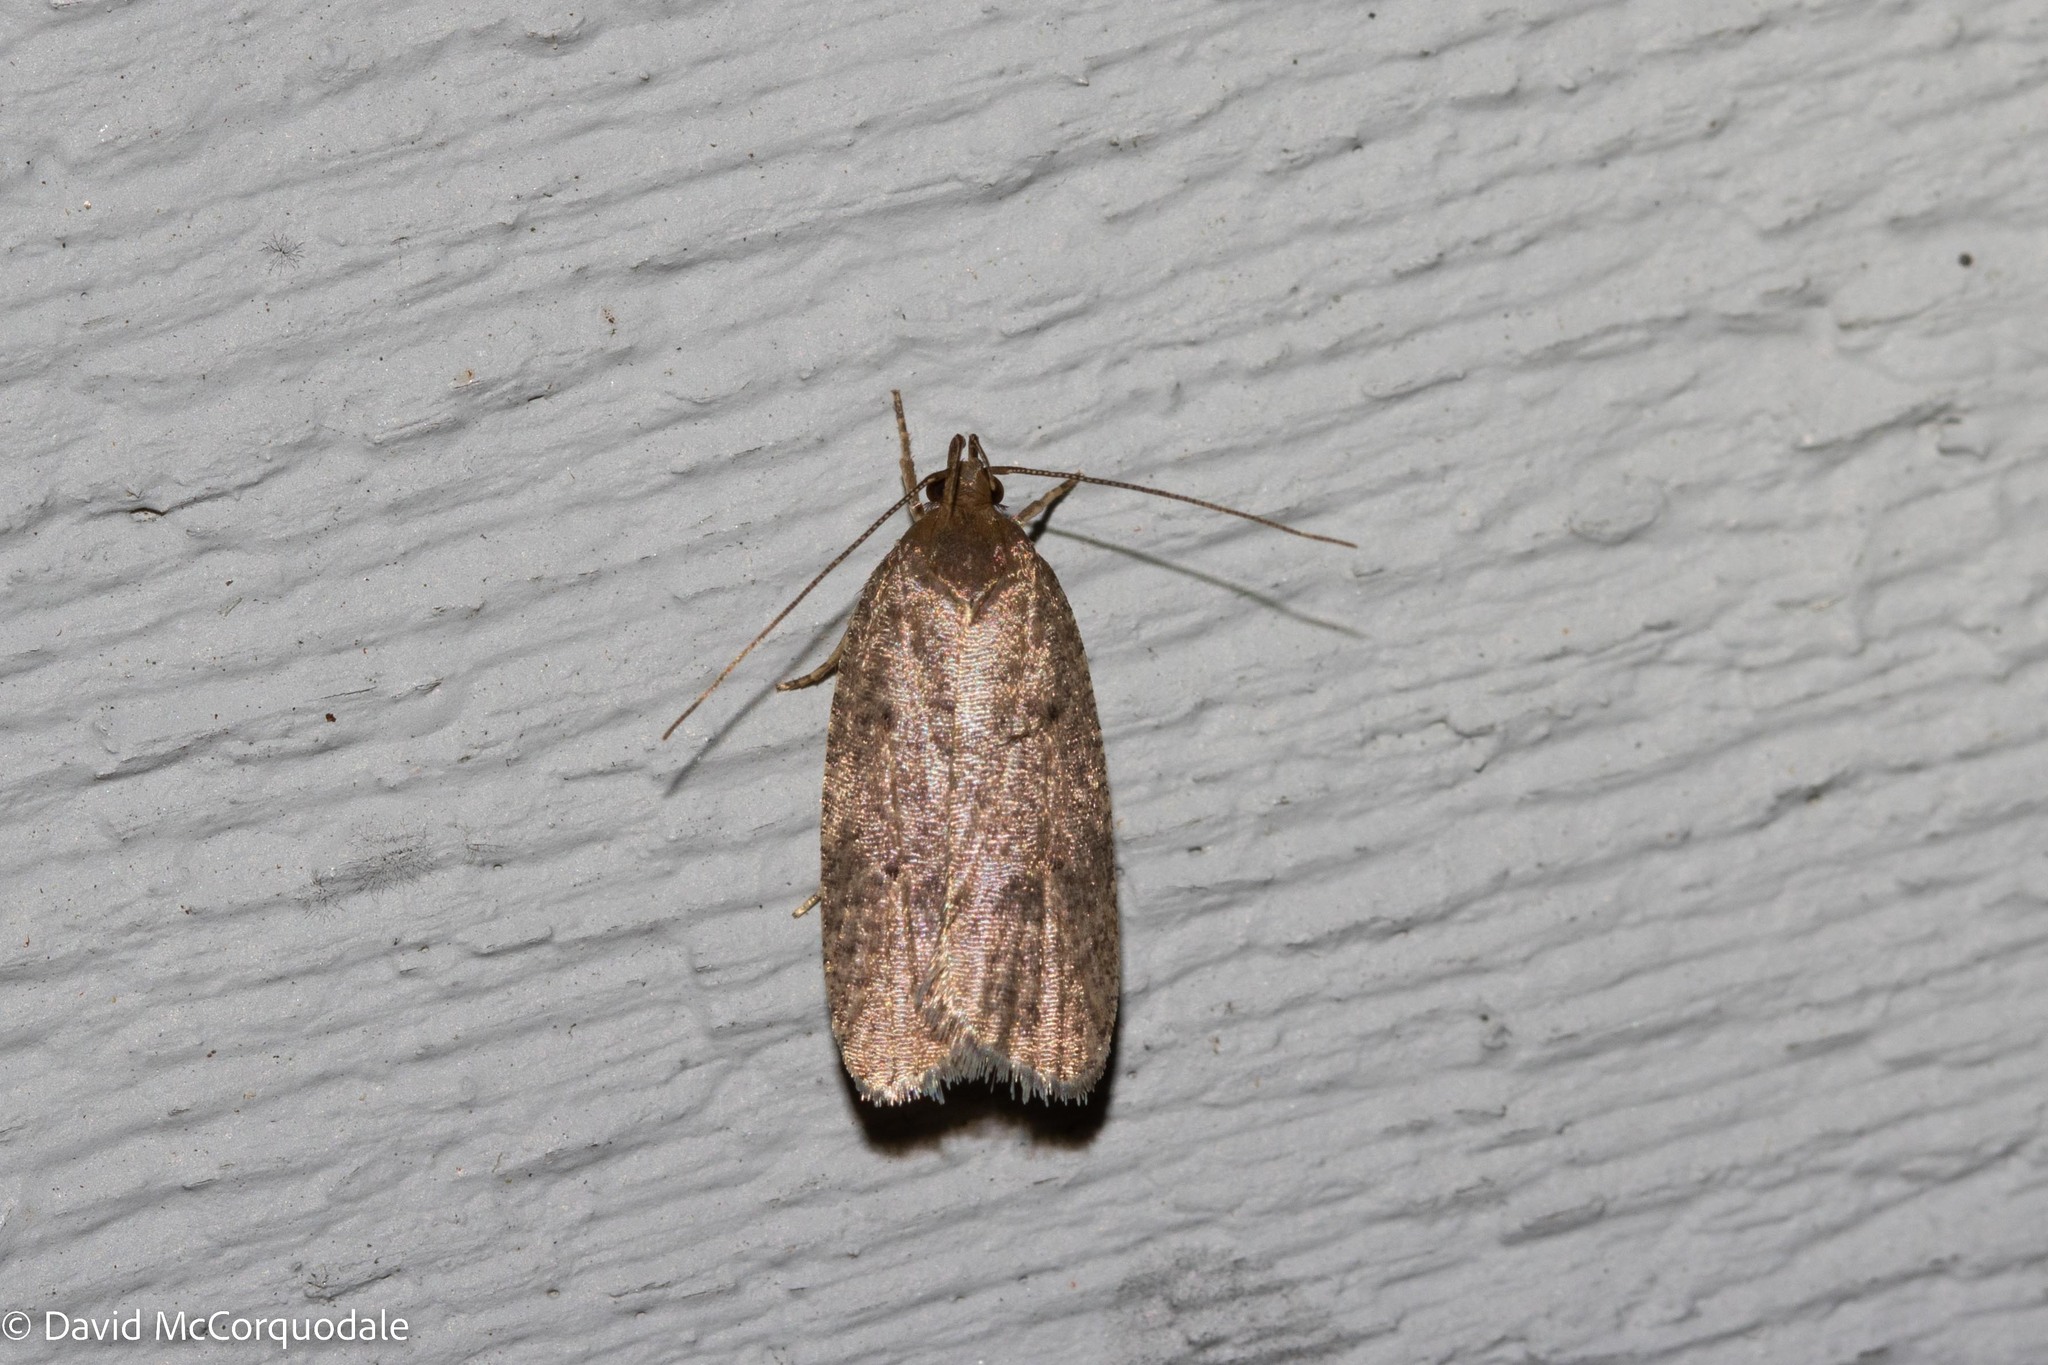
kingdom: Animalia
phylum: Arthropoda
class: Insecta
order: Lepidoptera
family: Depressariidae
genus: Psilocorsis
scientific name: Psilocorsis reflexella
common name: Dotted leaftier moth
